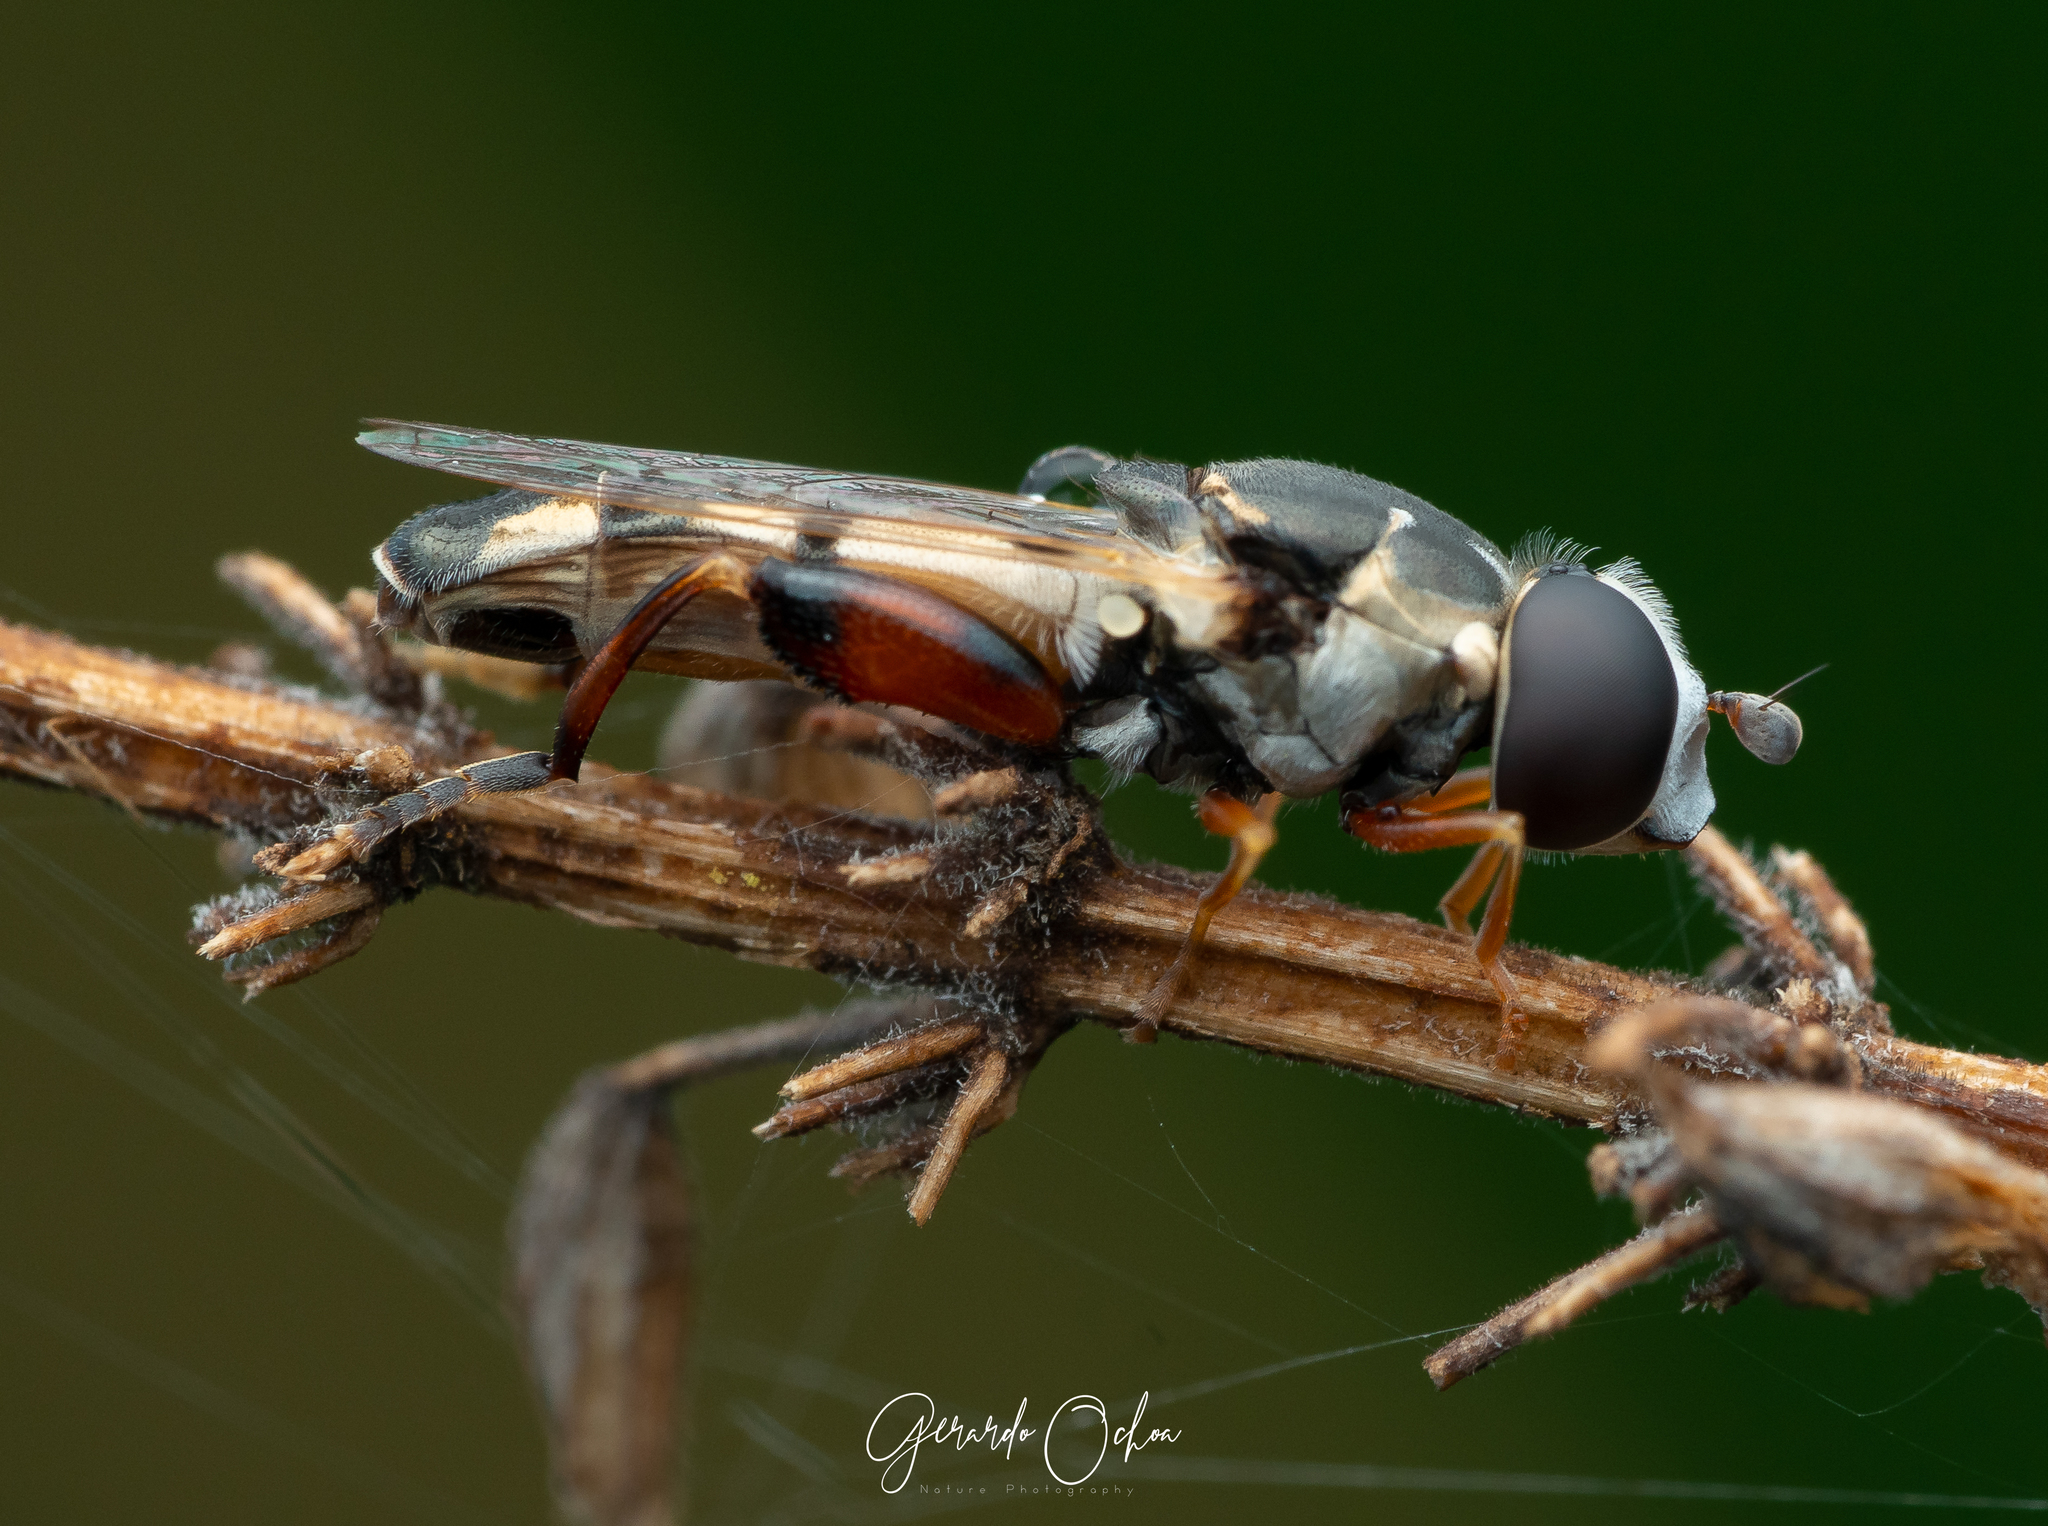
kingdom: Animalia
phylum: Arthropoda
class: Insecta
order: Diptera
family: Syrphidae
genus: Syritta
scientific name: Syritta flaviventris
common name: Syrphid fly
